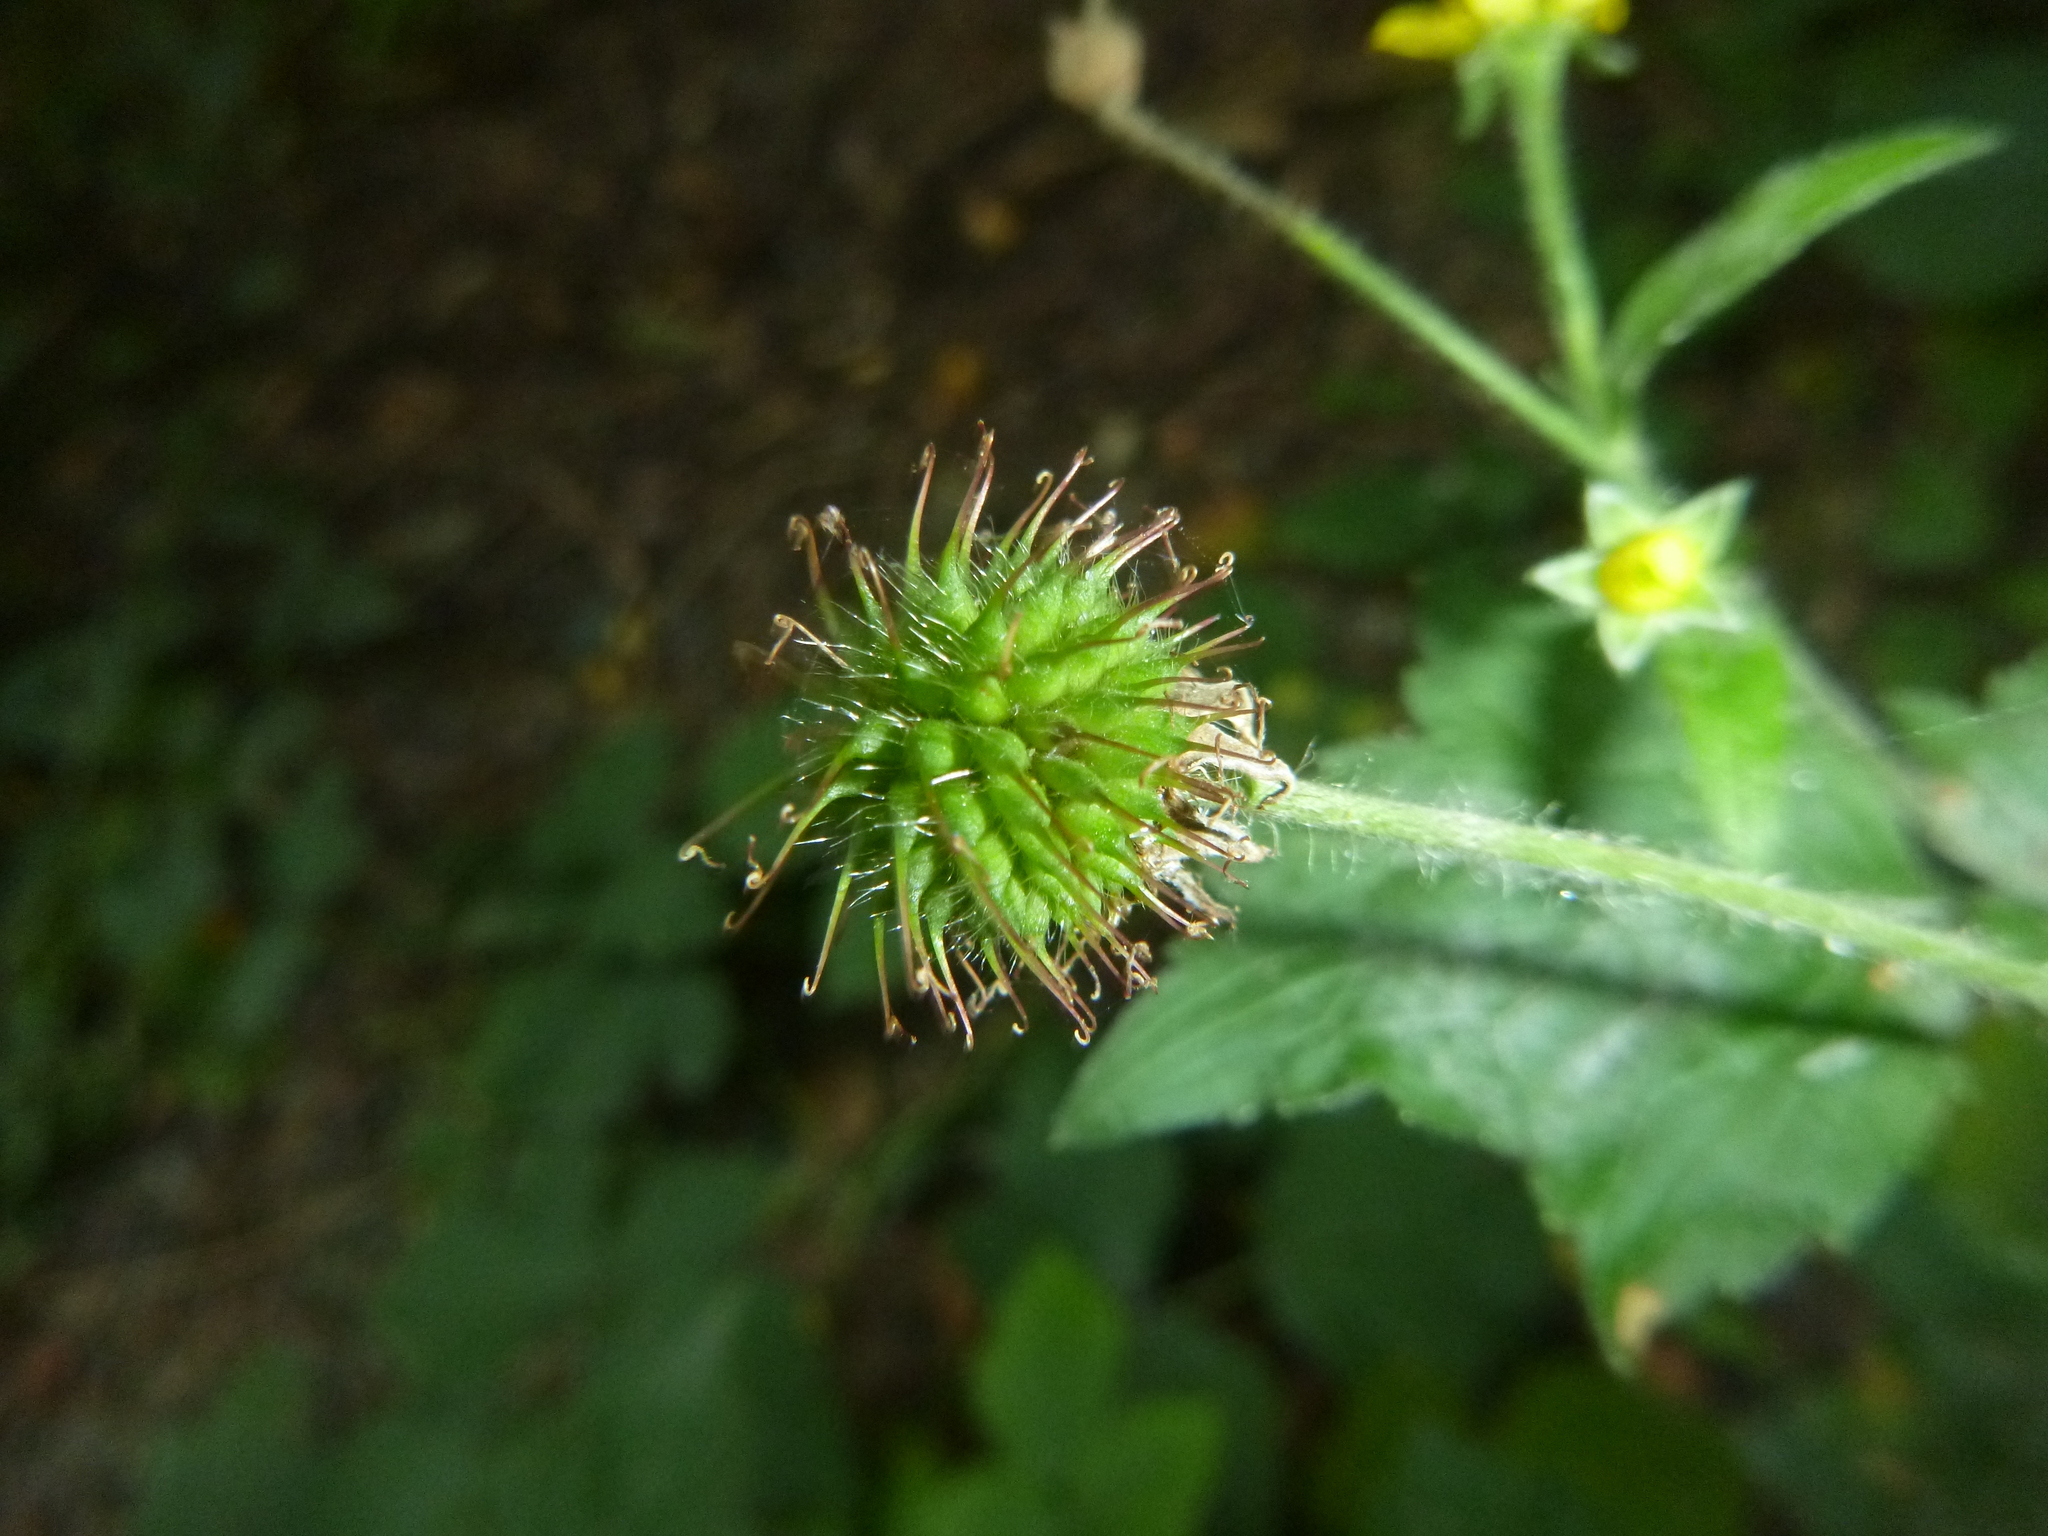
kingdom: Plantae
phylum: Tracheophyta
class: Magnoliopsida
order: Rosales
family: Rosaceae
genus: Geum
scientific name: Geum urbanum
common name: Wood avens
